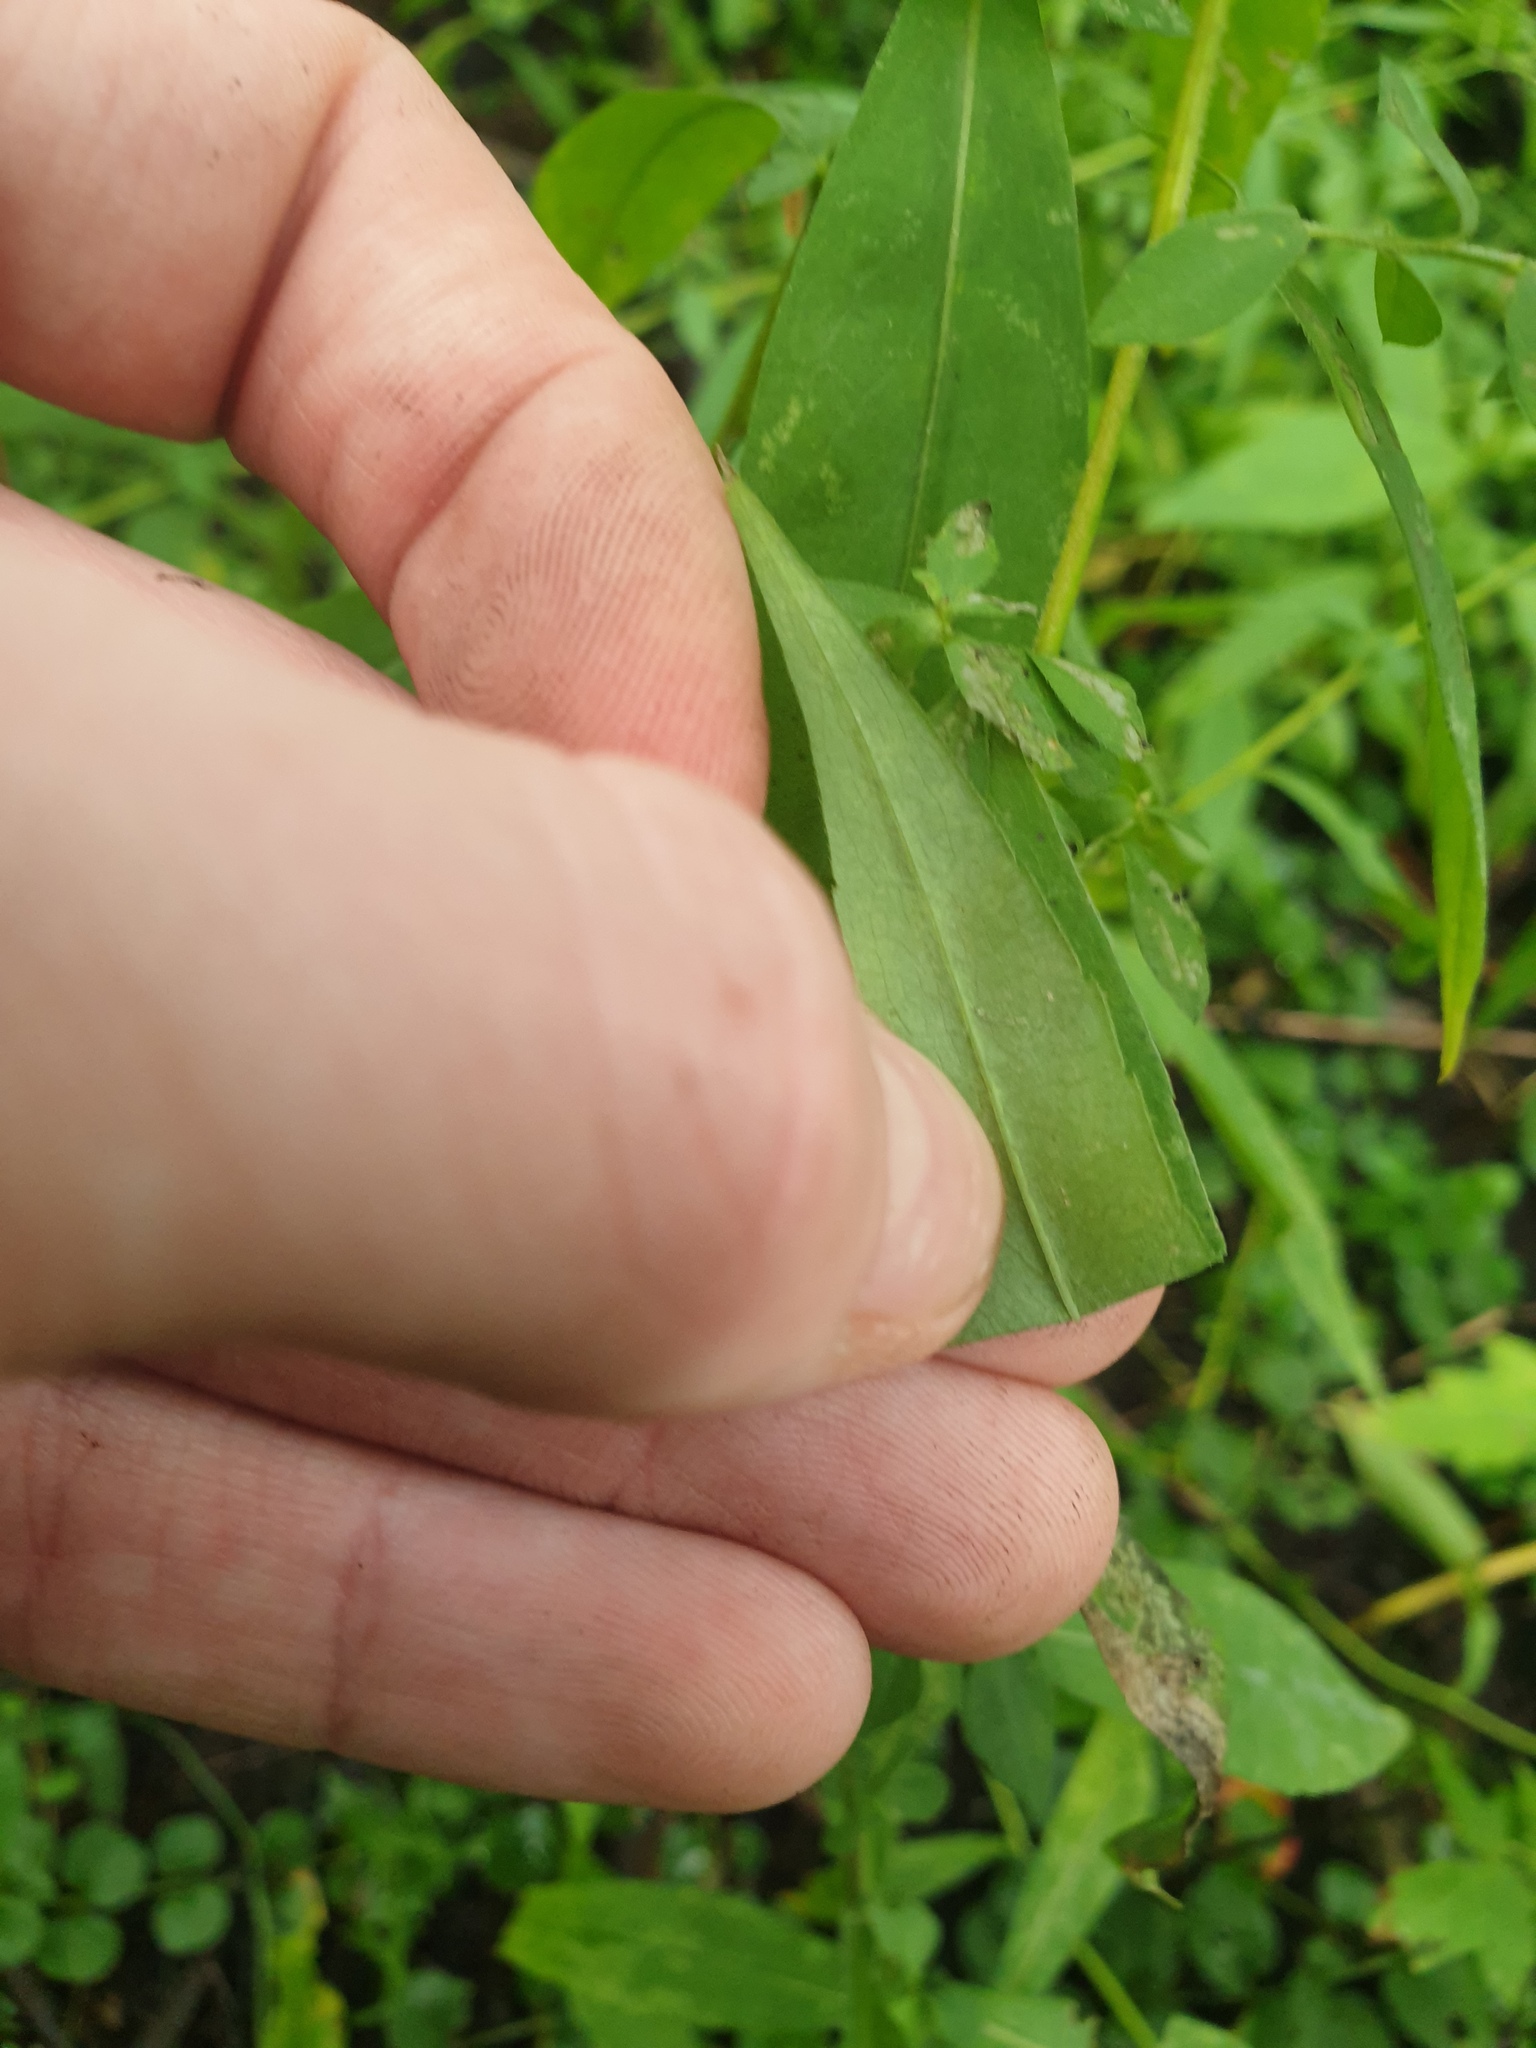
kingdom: Plantae
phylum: Tracheophyta
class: Magnoliopsida
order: Asterales
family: Asteraceae
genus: Symphyotrichum
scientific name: Symphyotrichum ontarionis
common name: Bottomland aster
